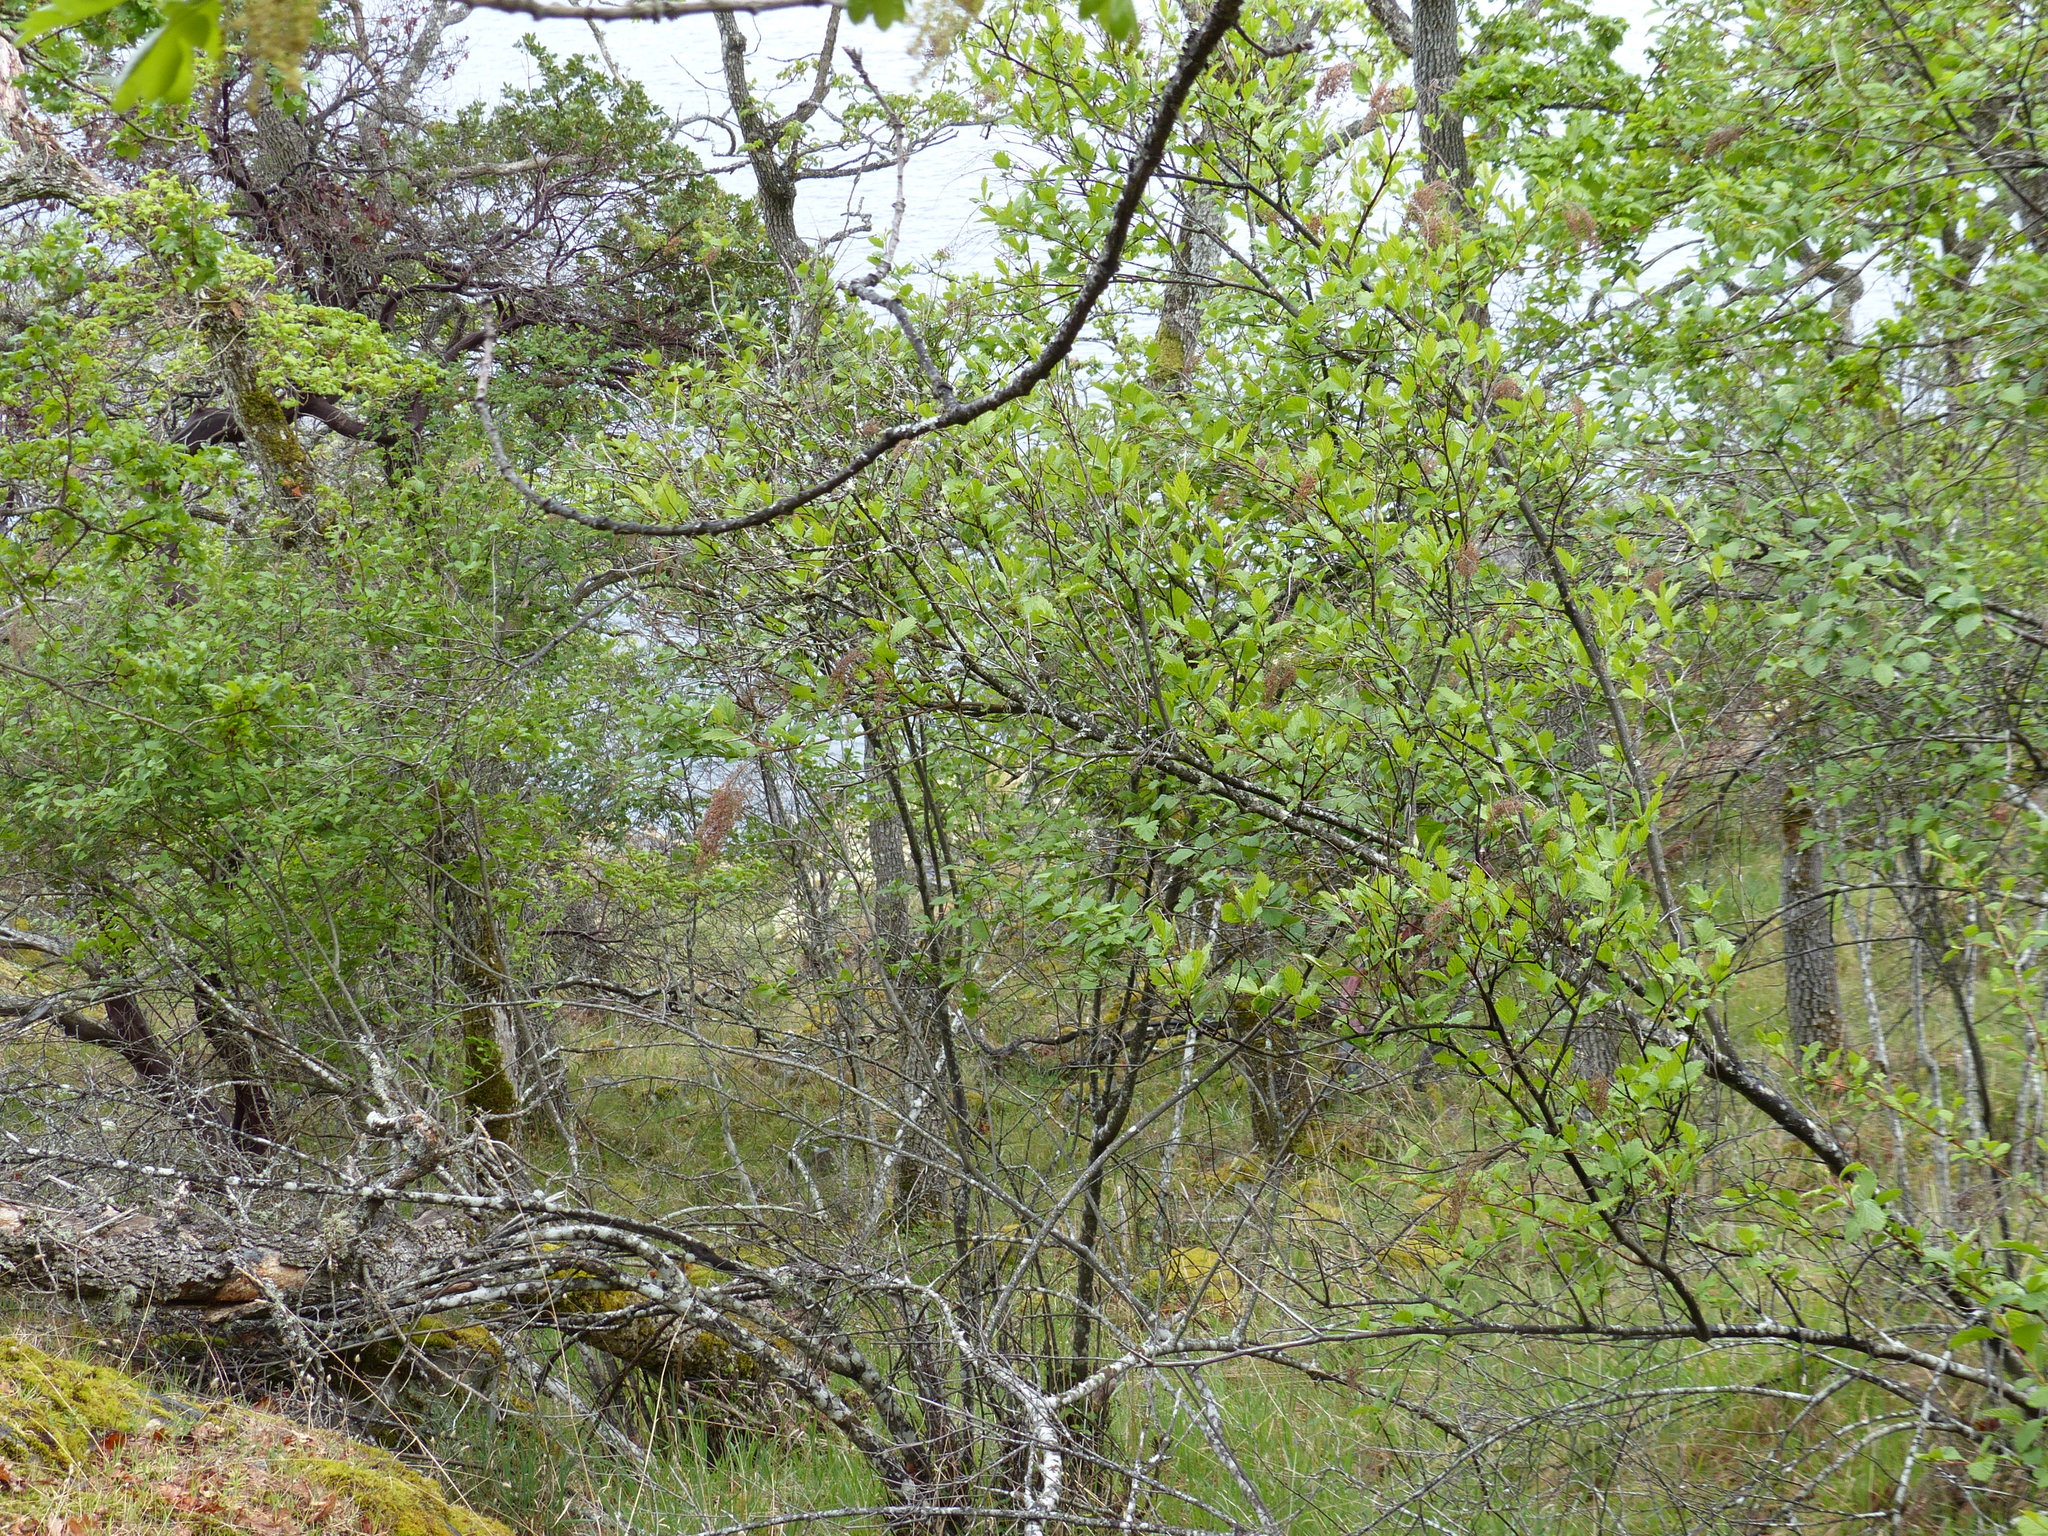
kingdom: Plantae
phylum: Tracheophyta
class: Magnoliopsida
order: Rosales
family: Rosaceae
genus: Holodiscus
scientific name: Holodiscus discolor
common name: Oceanspray
